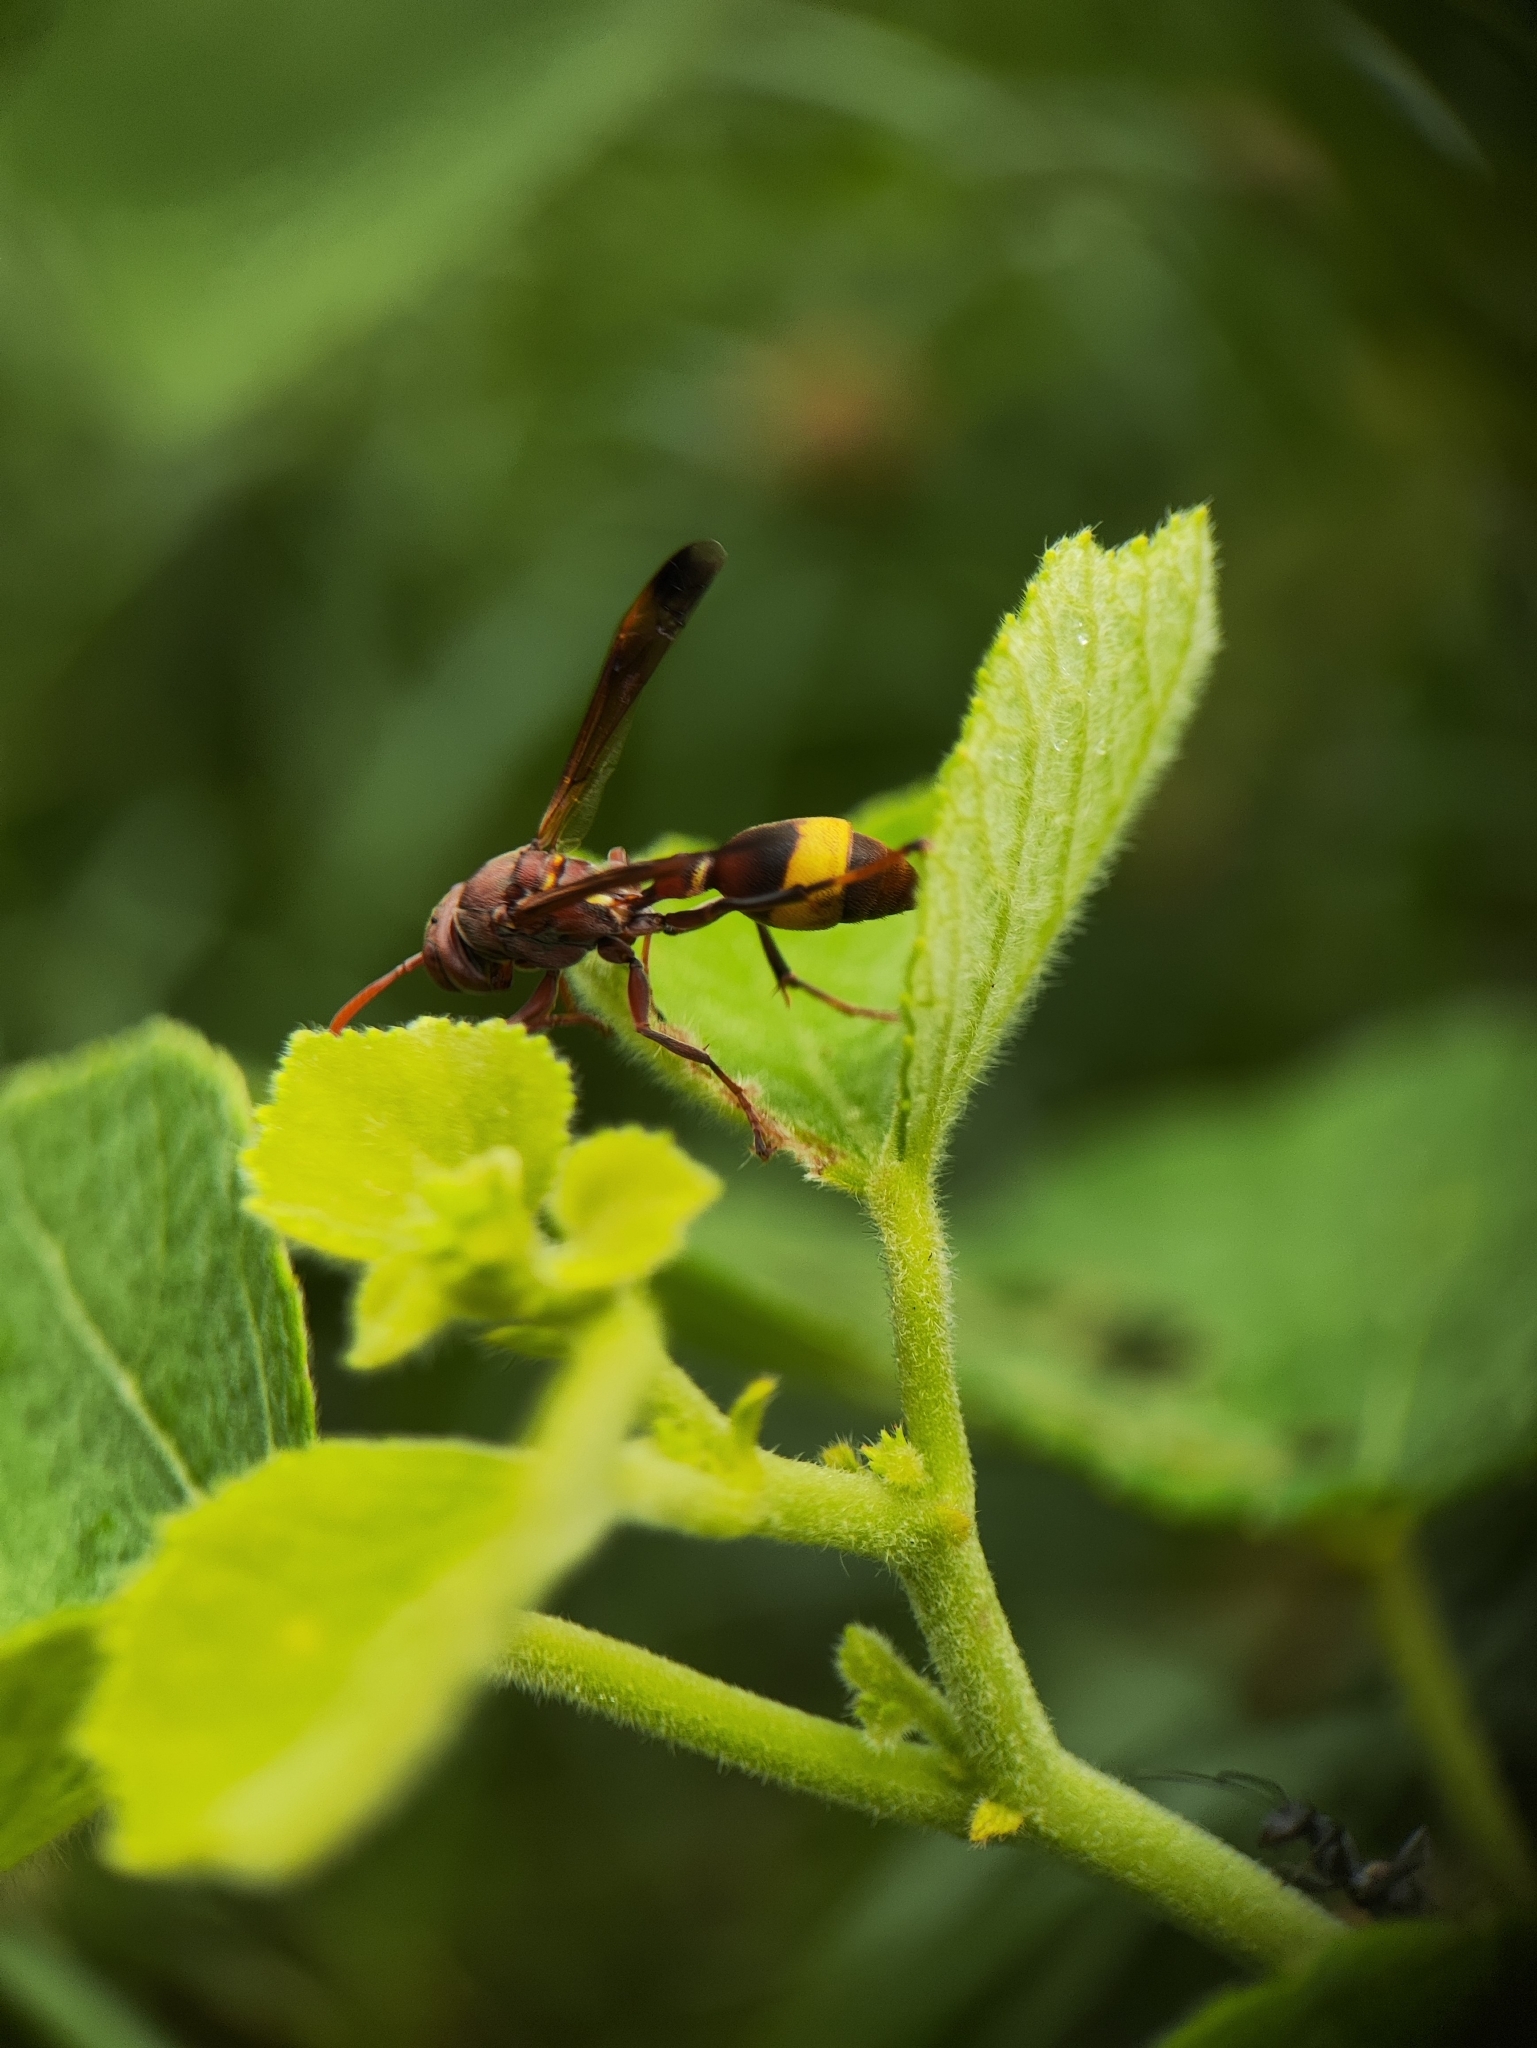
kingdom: Animalia
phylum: Arthropoda
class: Insecta
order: Hymenoptera
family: Vespidae
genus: Ropalidia
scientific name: Ropalidia
